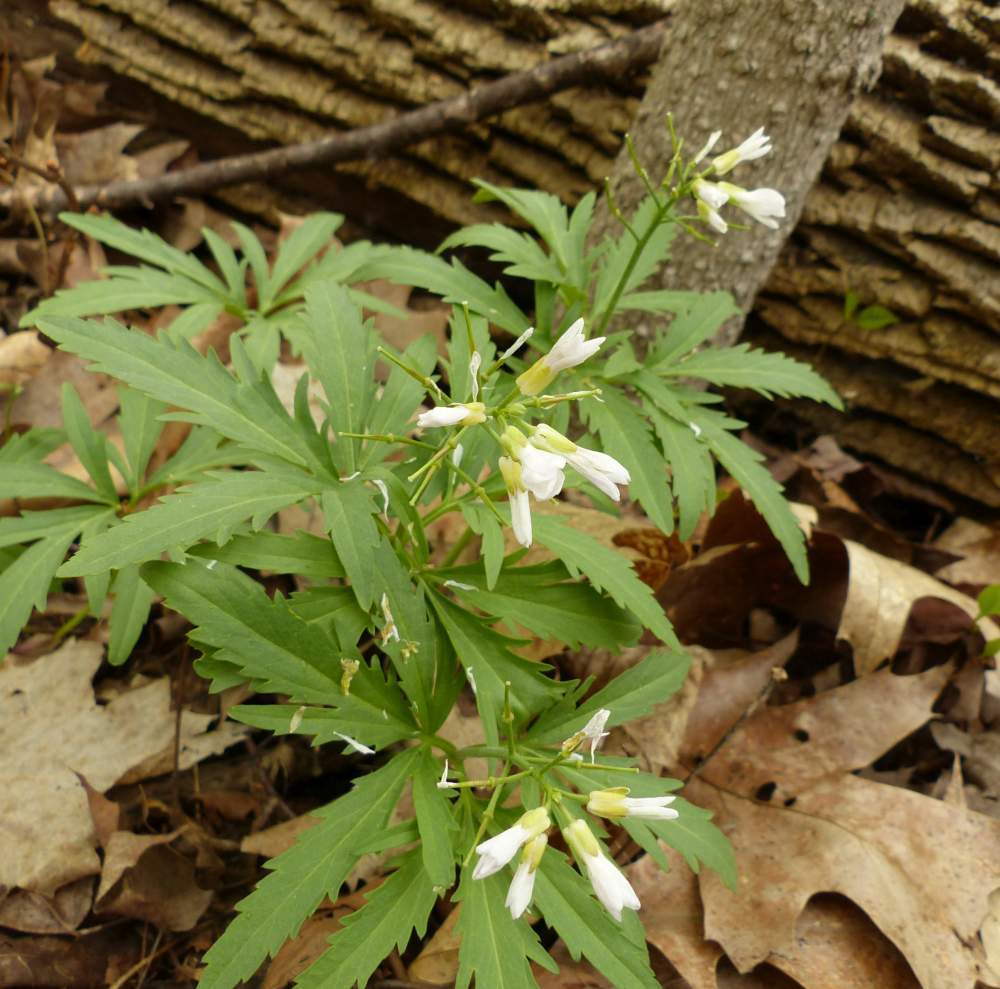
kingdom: Plantae
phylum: Tracheophyta
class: Magnoliopsida
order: Brassicales
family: Brassicaceae
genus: Cardamine
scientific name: Cardamine concatenata
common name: Cut-leaf toothcup
